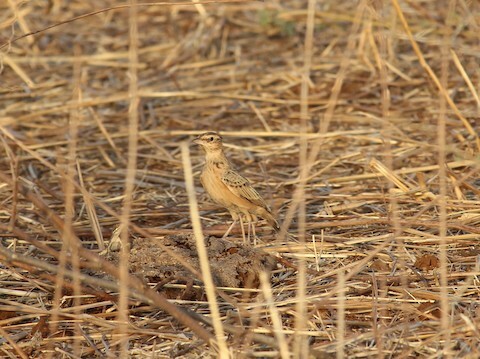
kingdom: Animalia
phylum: Chordata
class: Aves
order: Passeriformes
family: Alaudidae
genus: Galerida
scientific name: Galerida deva
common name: Sykes's lark
